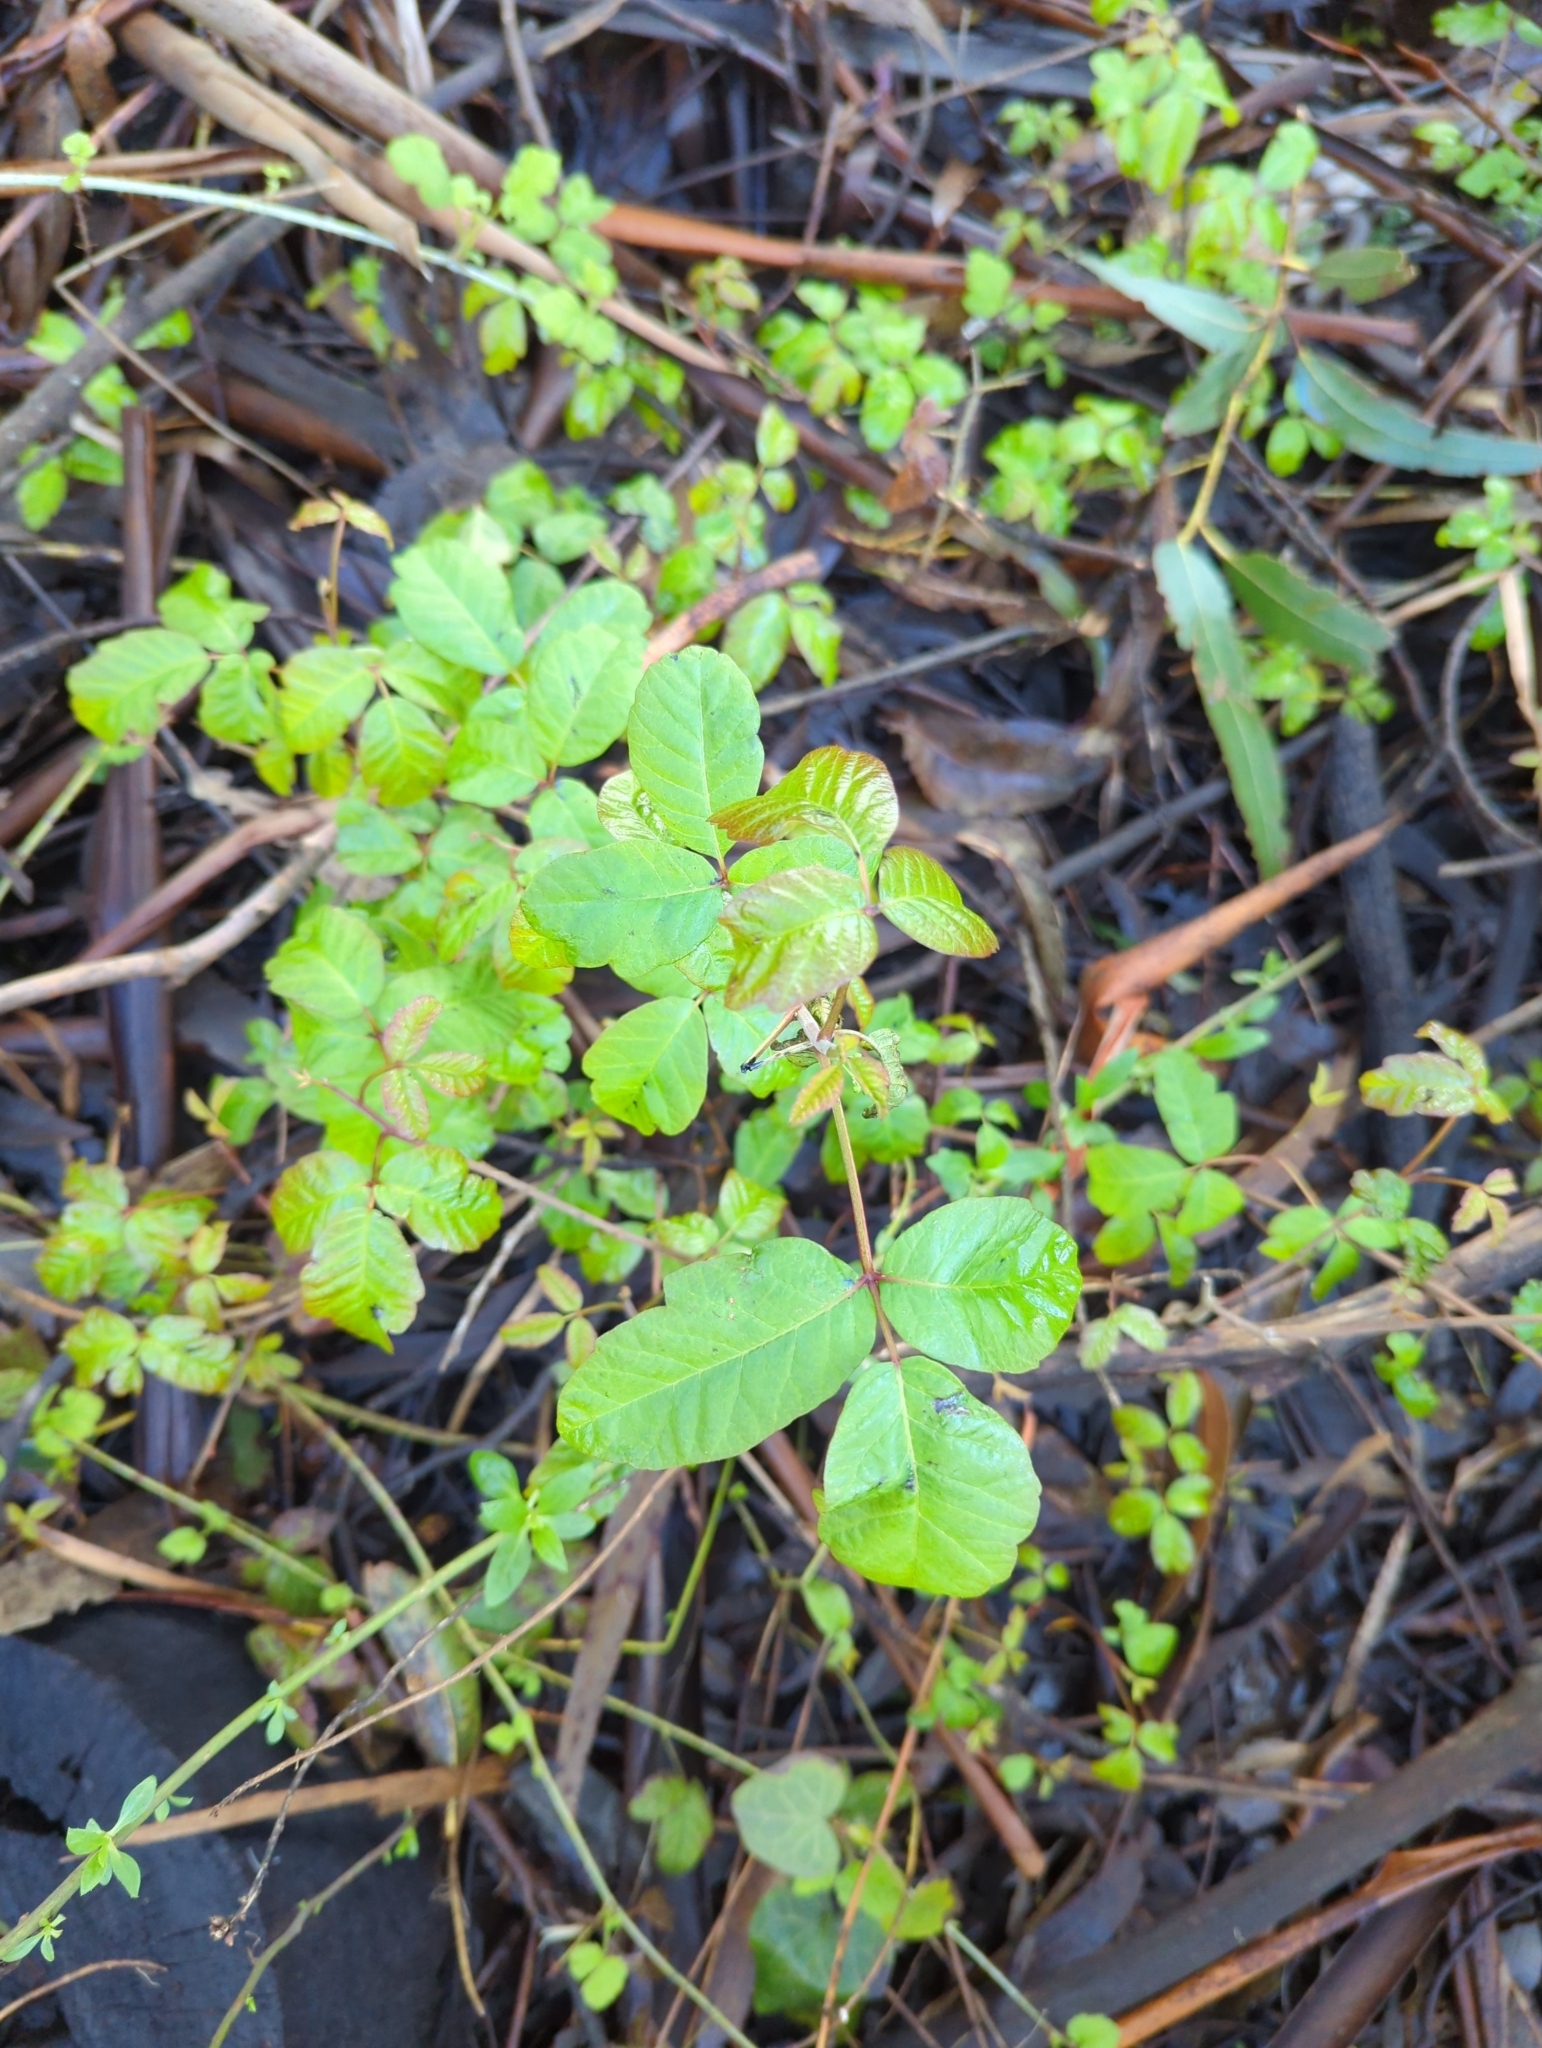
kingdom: Plantae
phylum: Tracheophyta
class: Magnoliopsida
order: Sapindales
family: Anacardiaceae
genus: Toxicodendron
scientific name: Toxicodendron diversilobum
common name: Pacific poison-oak
